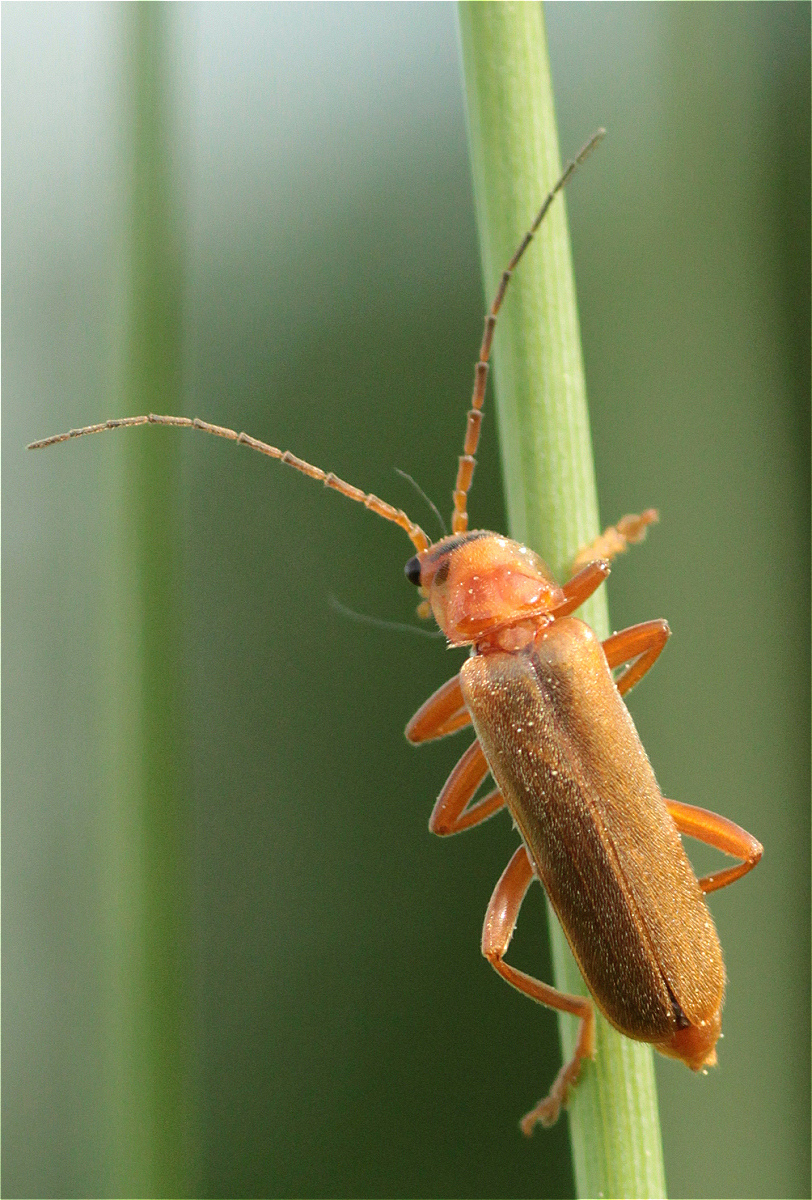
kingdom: Animalia
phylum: Arthropoda
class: Insecta
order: Coleoptera
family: Cantharidae
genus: Cantharis
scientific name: Cantharis livida
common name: Livid soldier beetle
